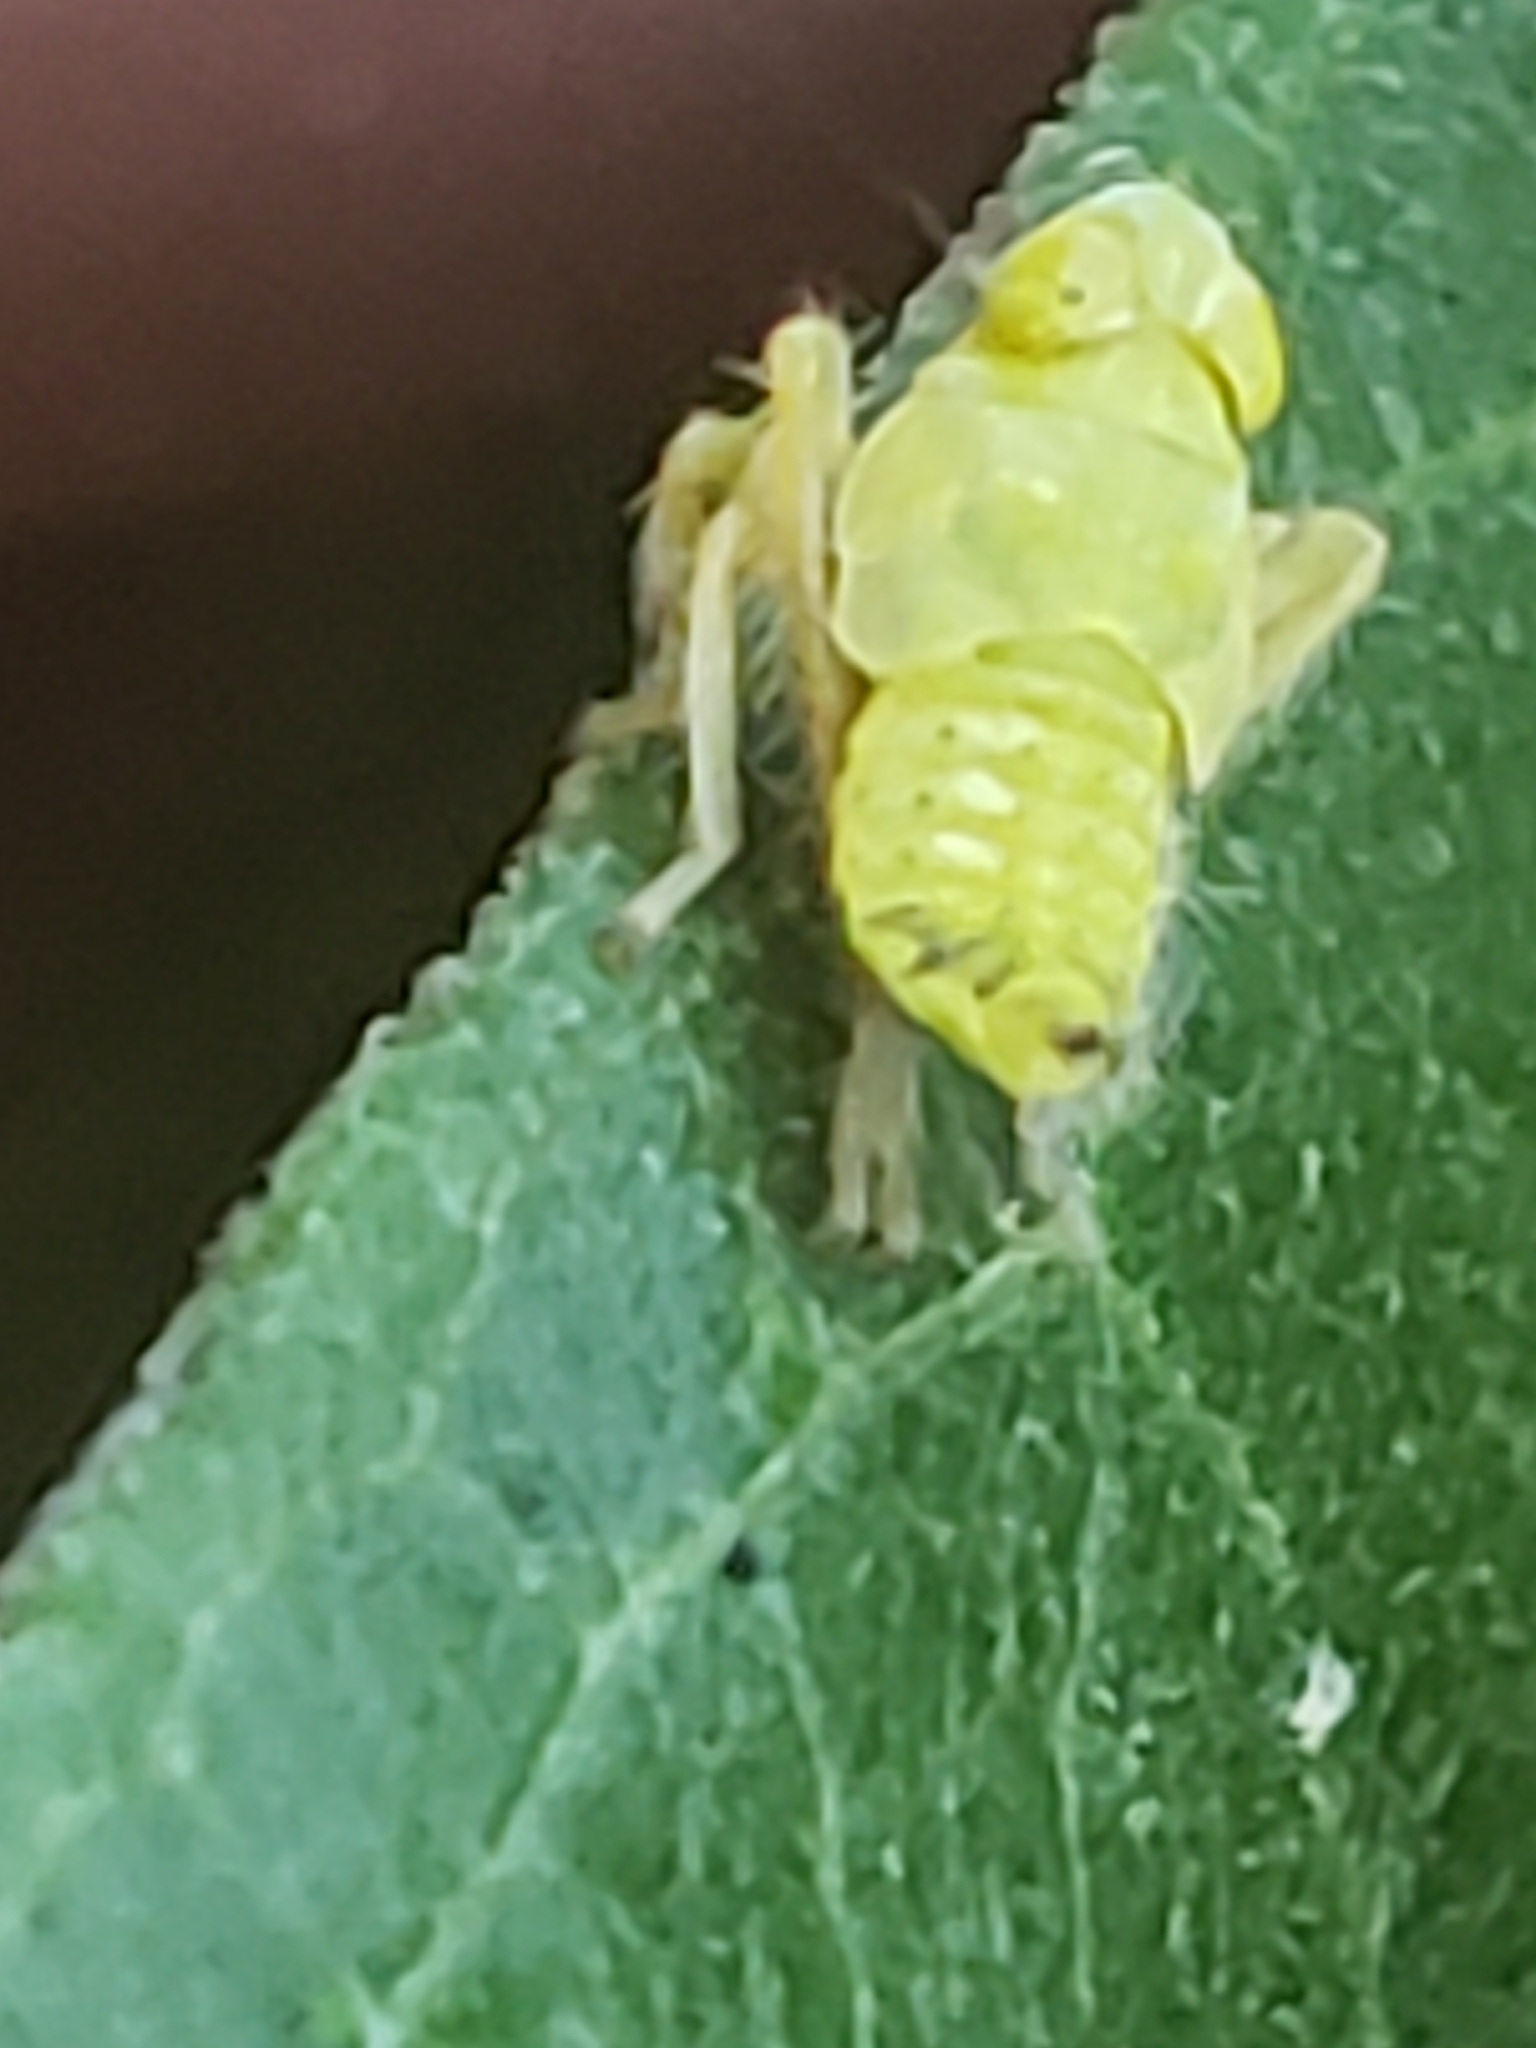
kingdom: Animalia
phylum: Arthropoda
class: Insecta
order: Hemiptera
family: Cicadellidae
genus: Jikradia
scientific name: Jikradia olitoria
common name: Coppery leafhopper
